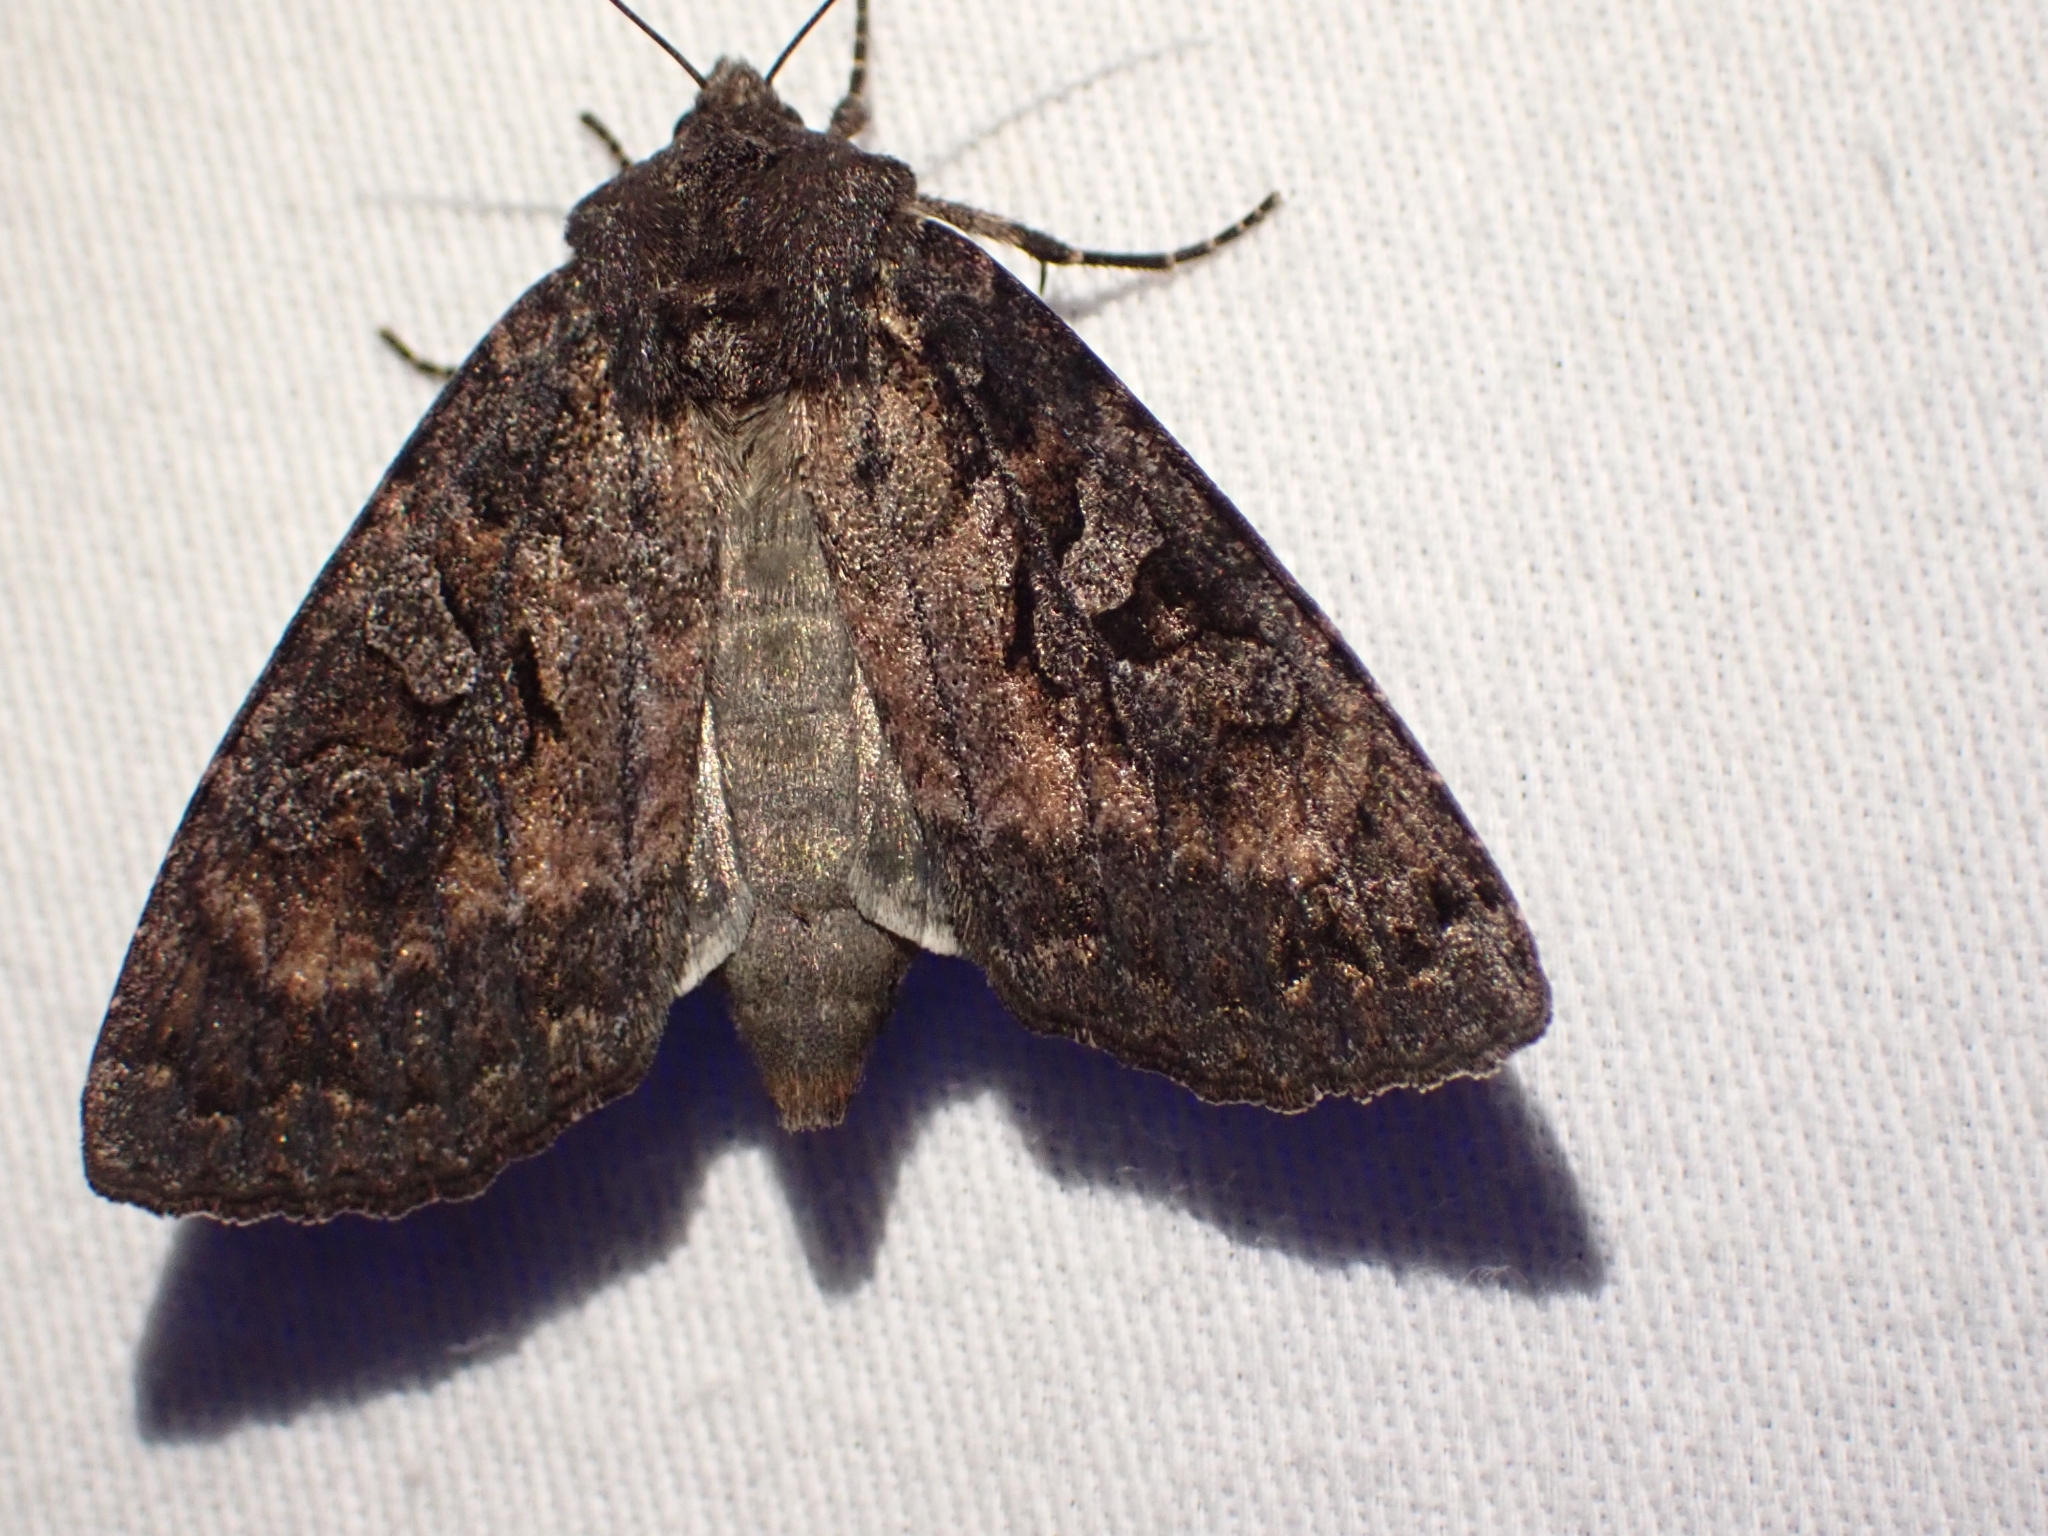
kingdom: Animalia
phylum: Arthropoda
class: Insecta
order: Lepidoptera
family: Noctuidae
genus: Eurois
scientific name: Eurois astricta
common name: Great brown dart
